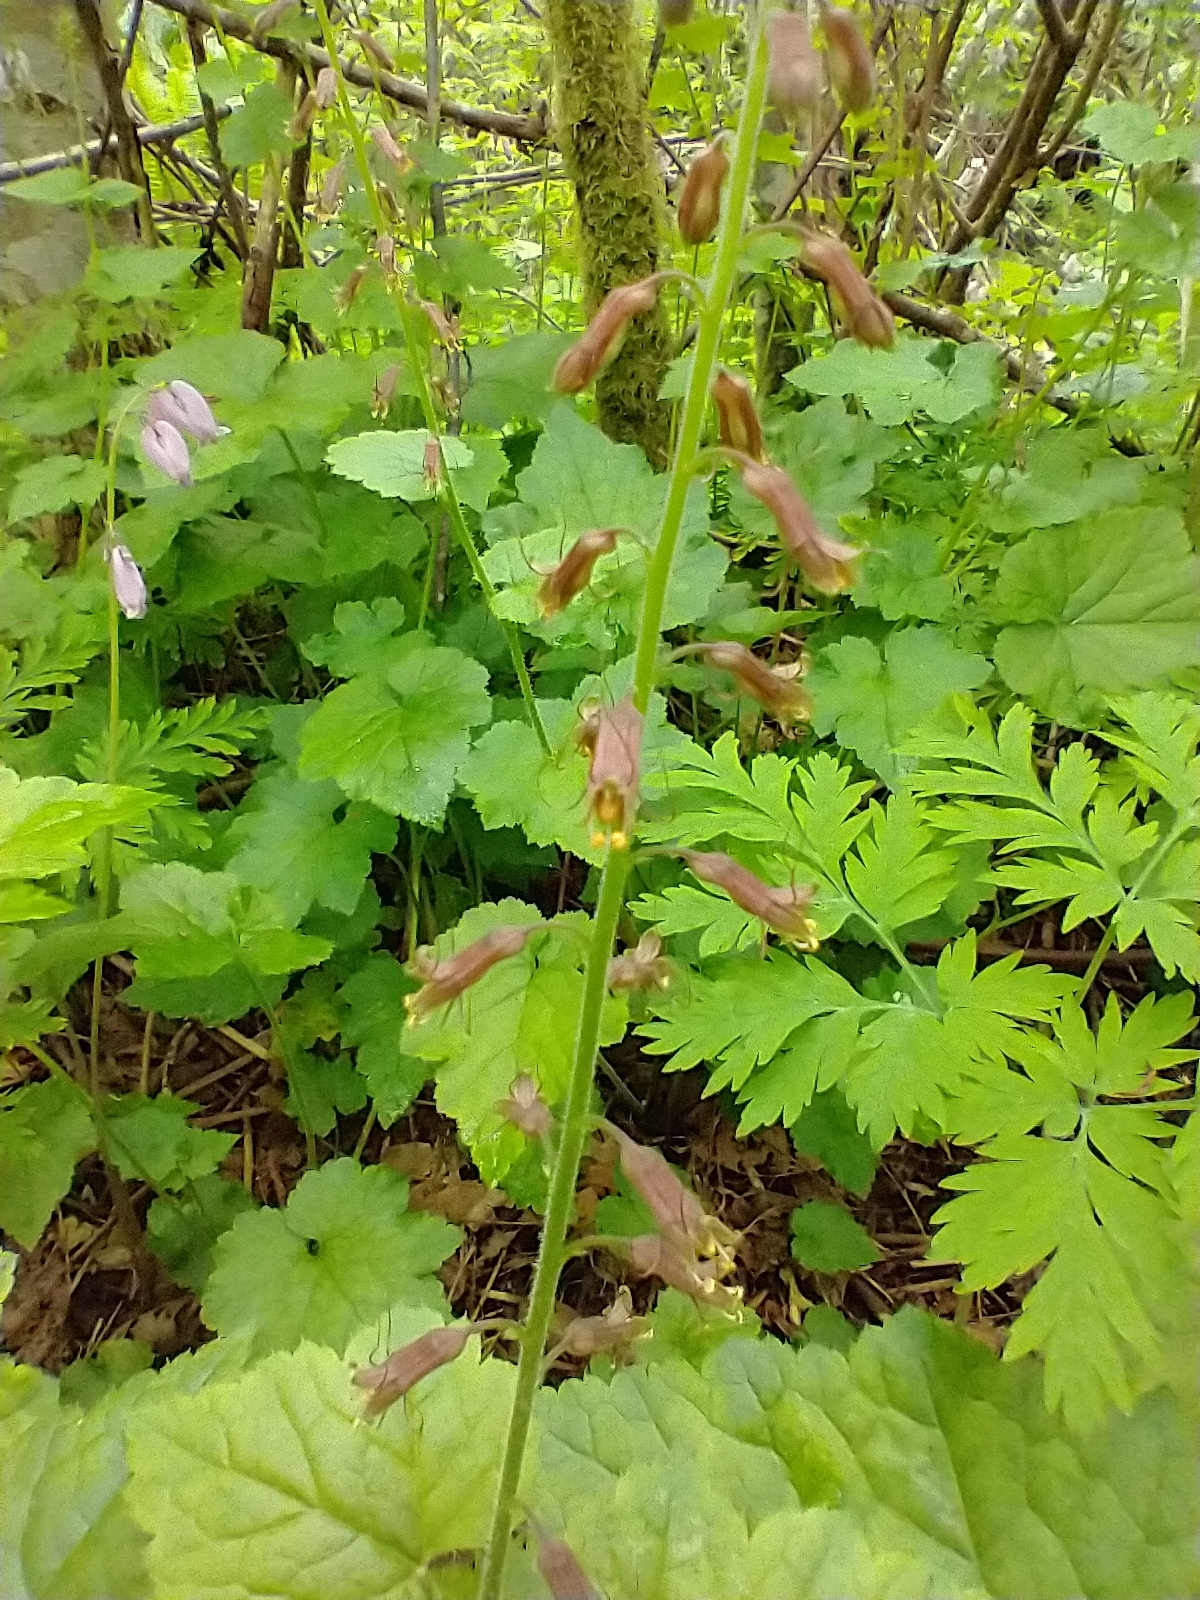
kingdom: Plantae
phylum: Tracheophyta
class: Magnoliopsida
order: Saxifragales
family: Saxifragaceae
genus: Tolmiea
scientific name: Tolmiea menziesii
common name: Pick-a-back-plant
